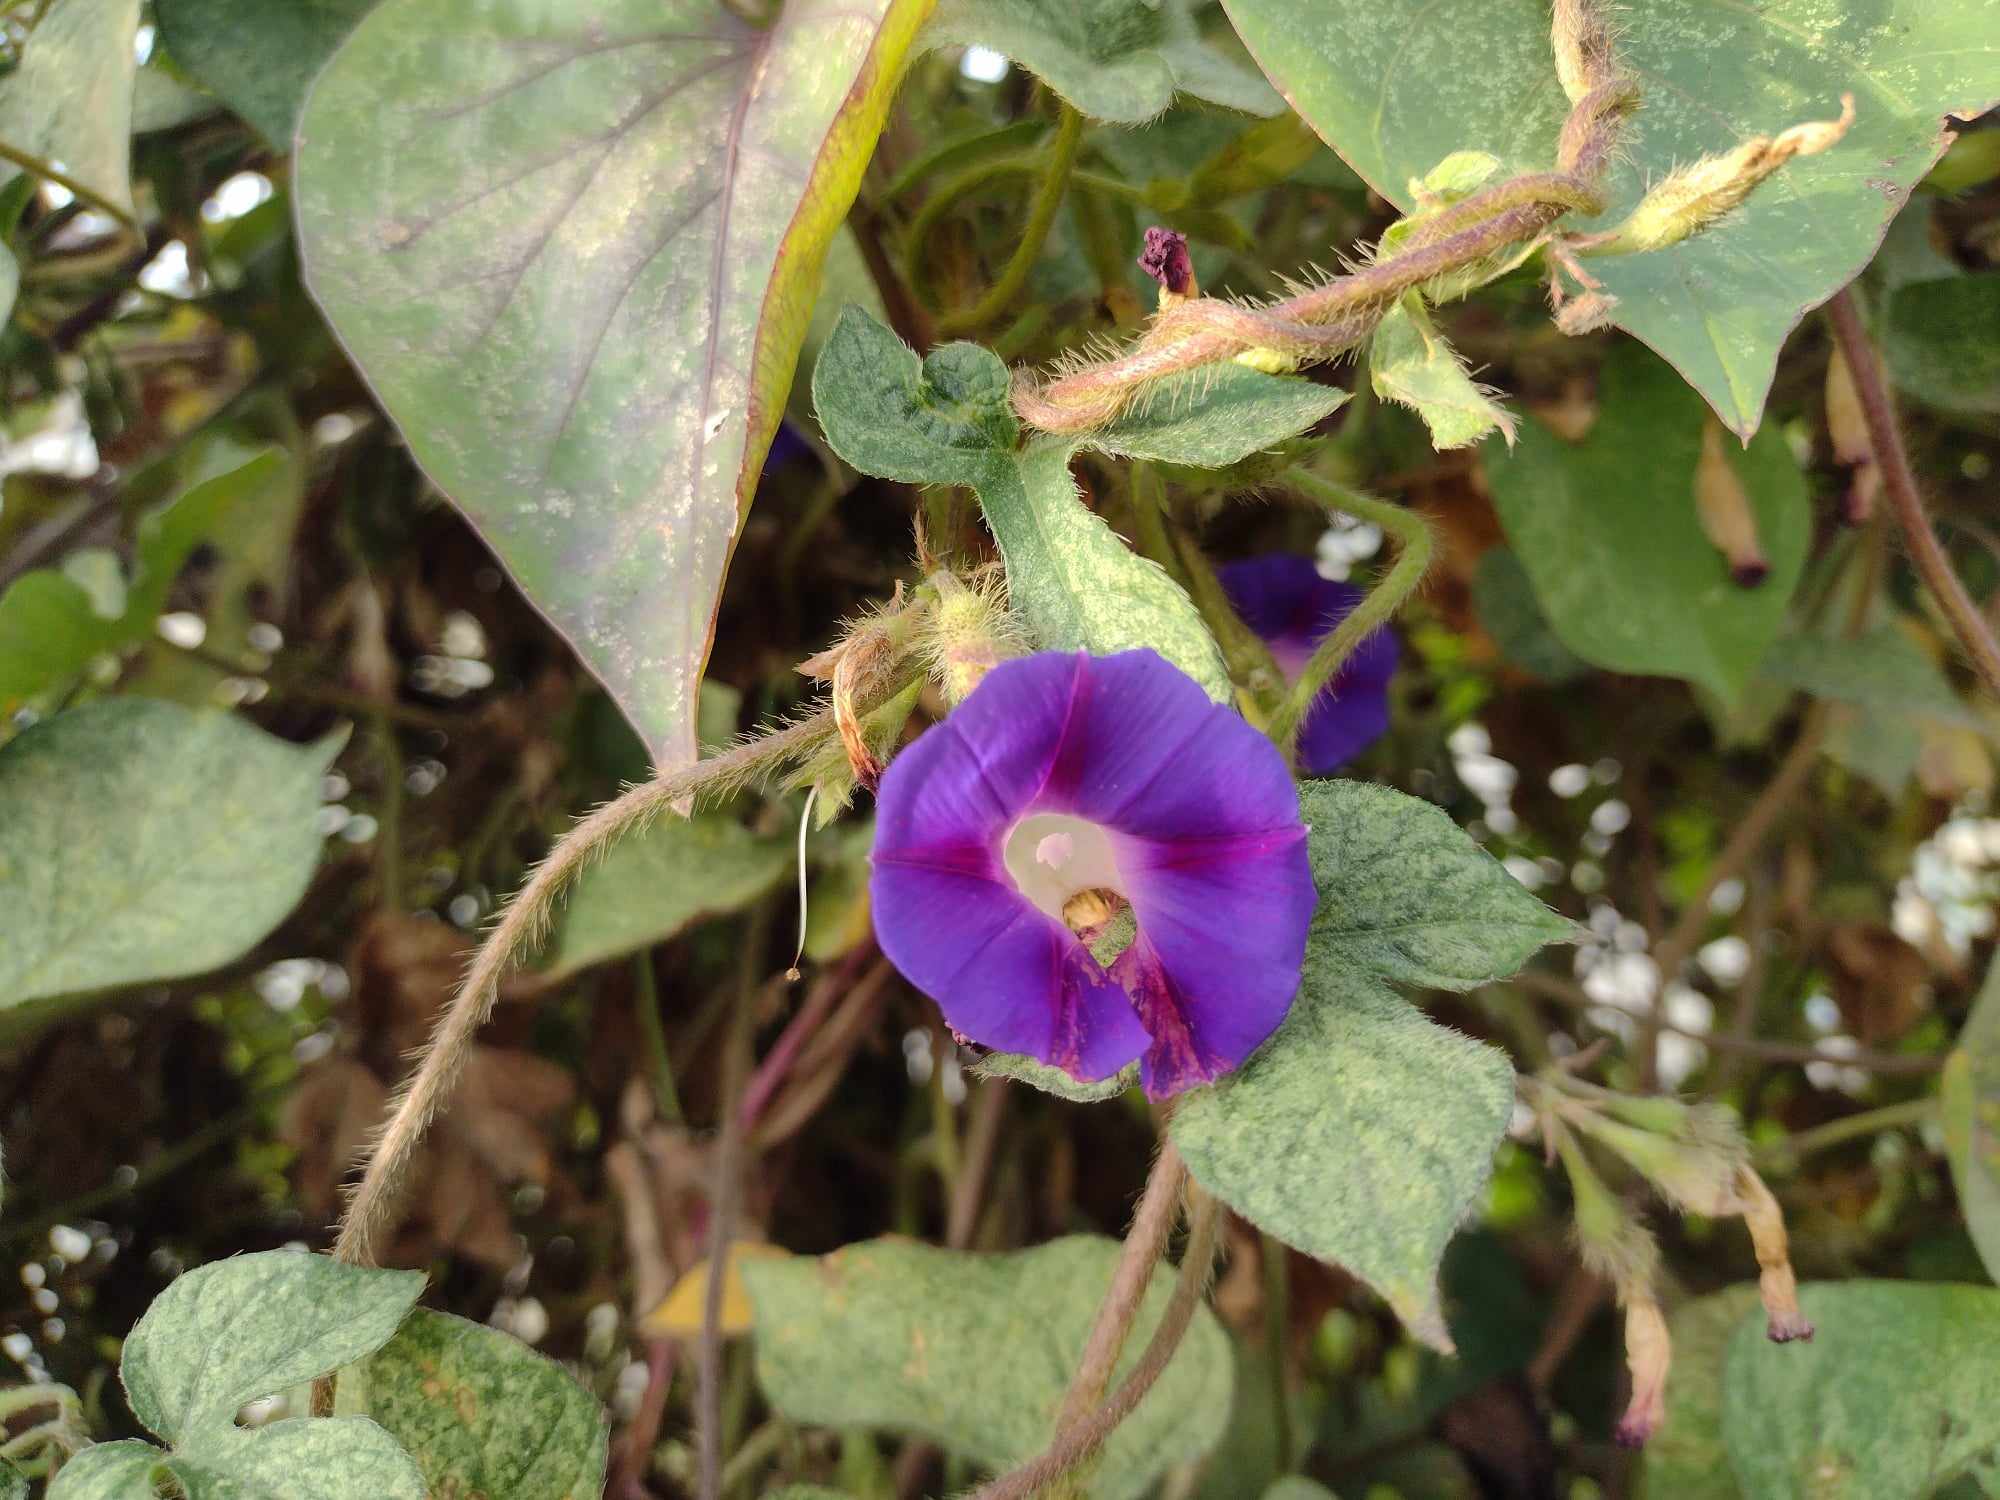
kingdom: Plantae
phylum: Tracheophyta
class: Magnoliopsida
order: Solanales
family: Convolvulaceae
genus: Ipomoea
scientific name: Ipomoea purpurea
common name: Common morning-glory
